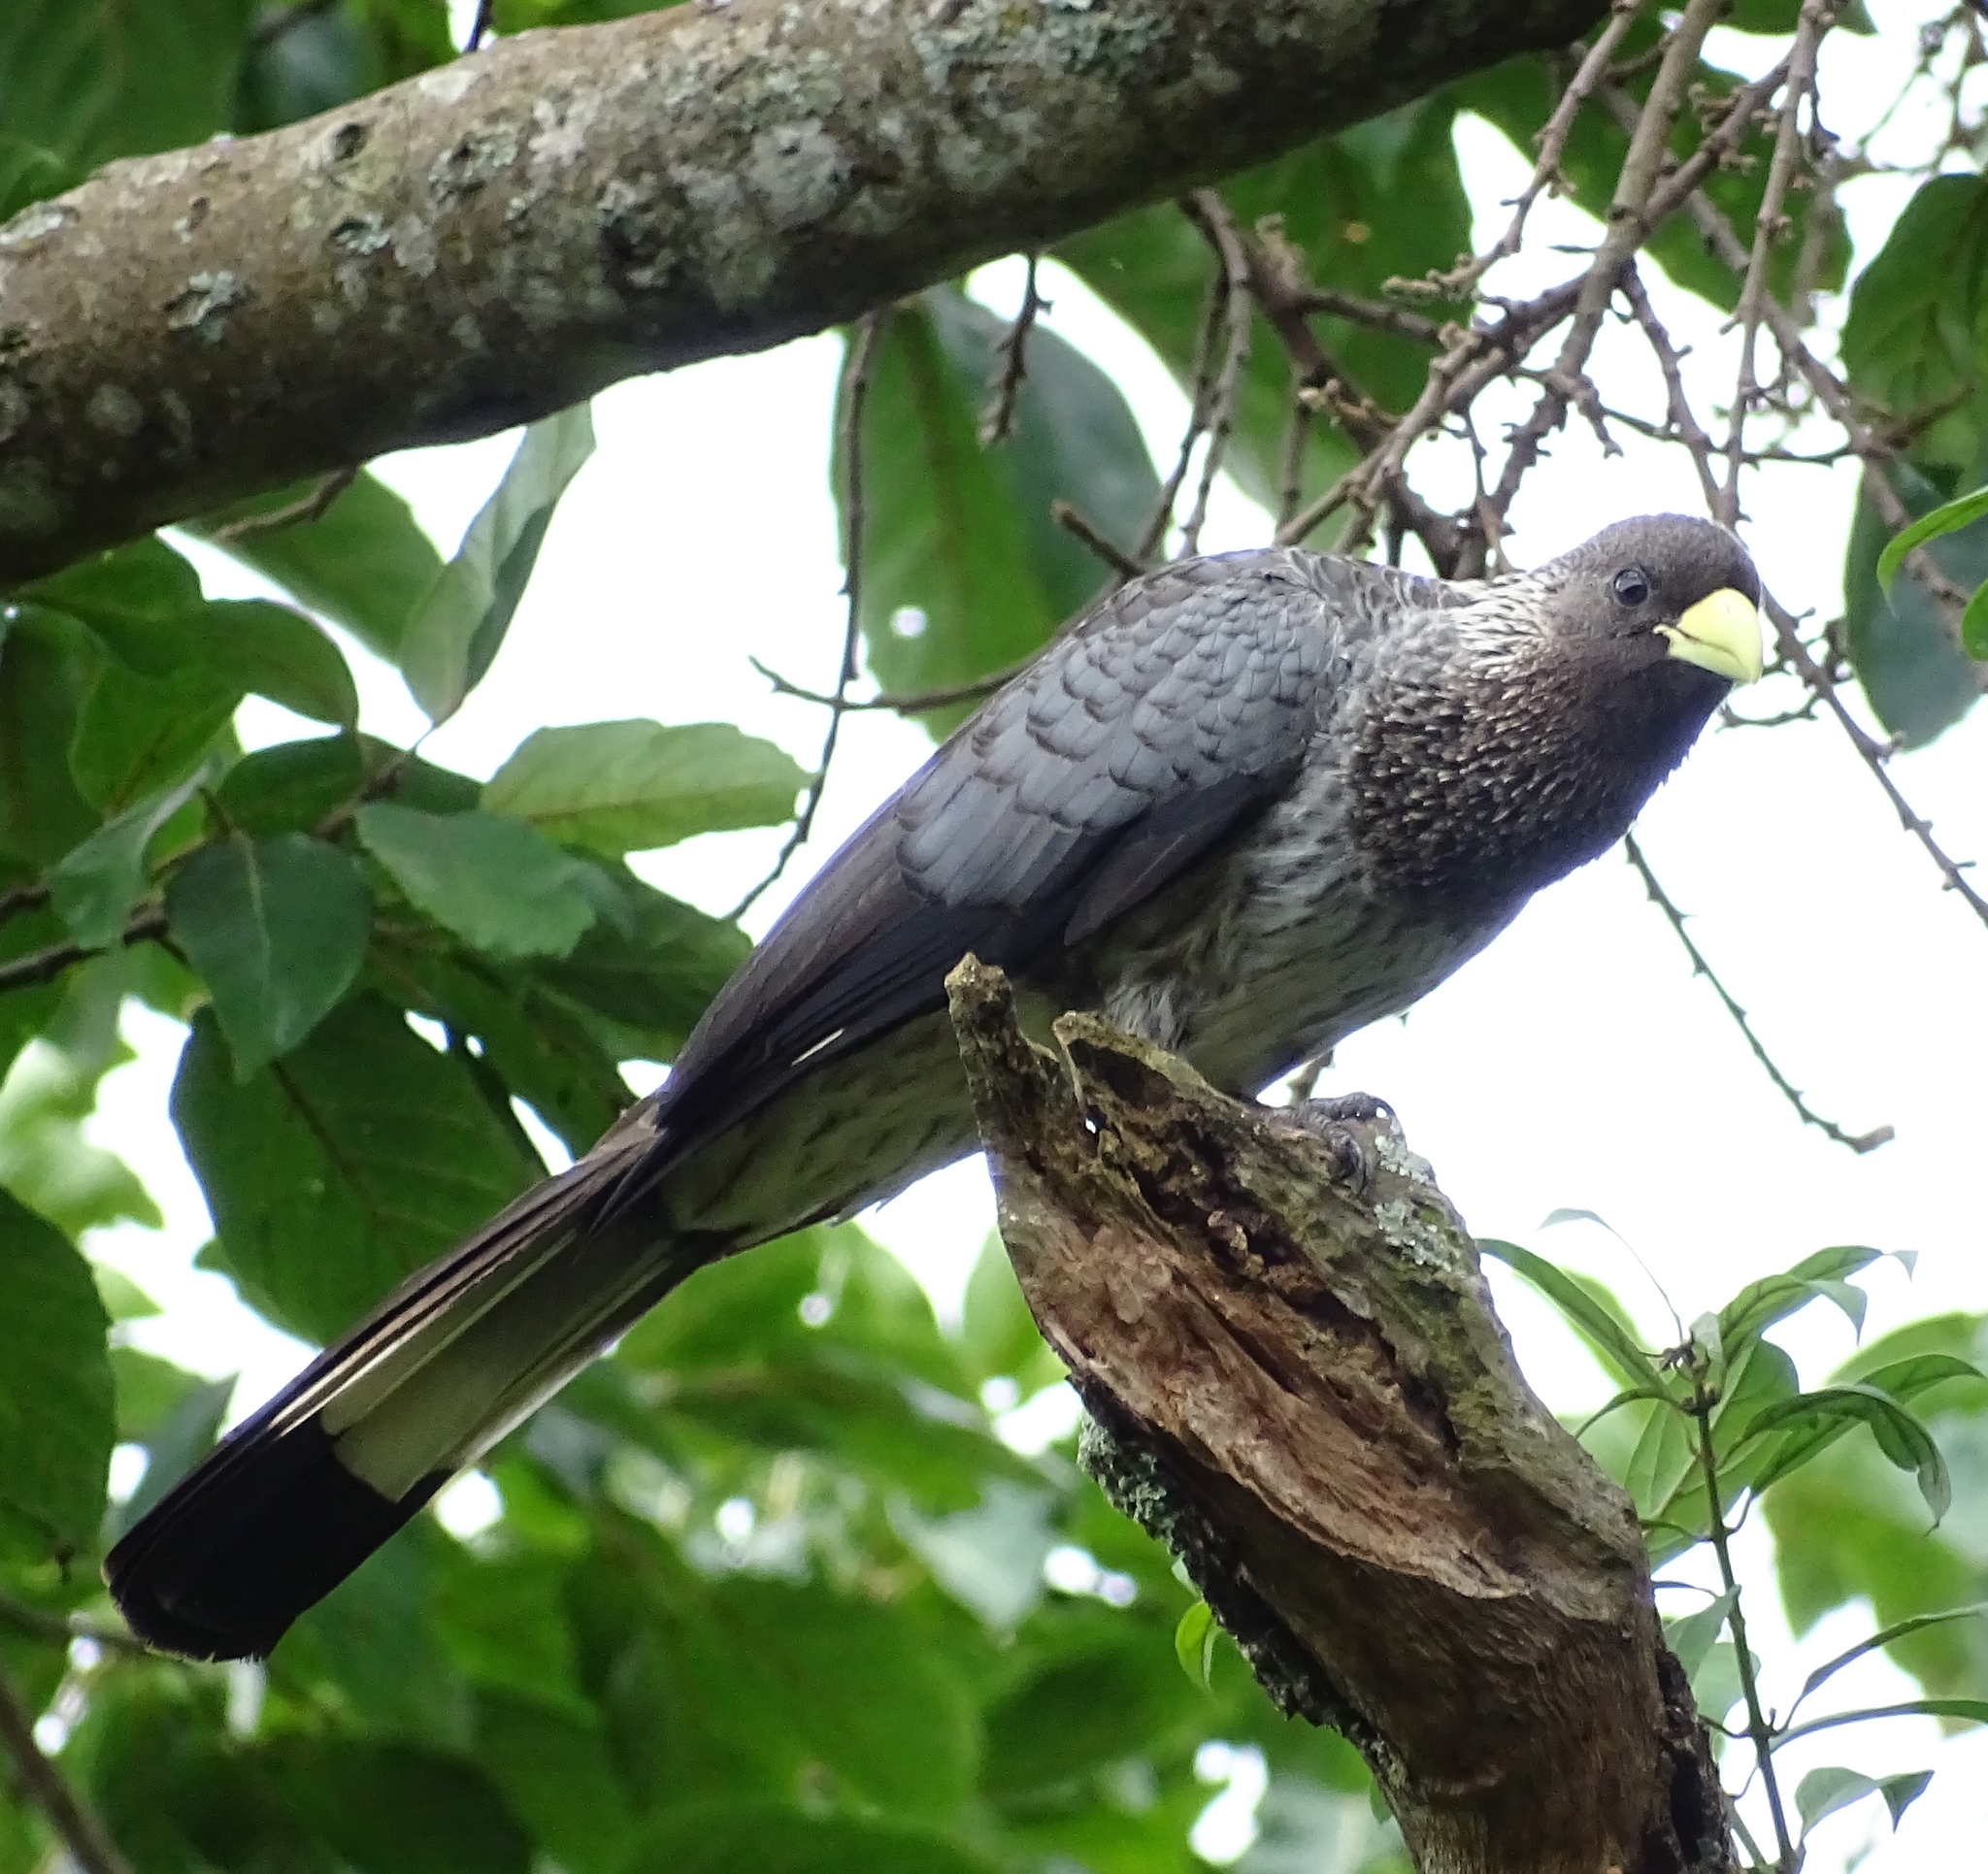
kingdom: Animalia
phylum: Chordata
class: Aves
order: Musophagiformes
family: Musophagidae
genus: Crinifer
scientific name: Crinifer zonurus
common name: Eastern plantain-eater
